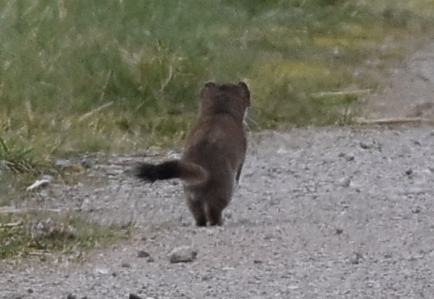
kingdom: Animalia
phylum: Chordata
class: Mammalia
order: Carnivora
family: Mustelidae
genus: Mustela
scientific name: Mustela erminea
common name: Stoat
